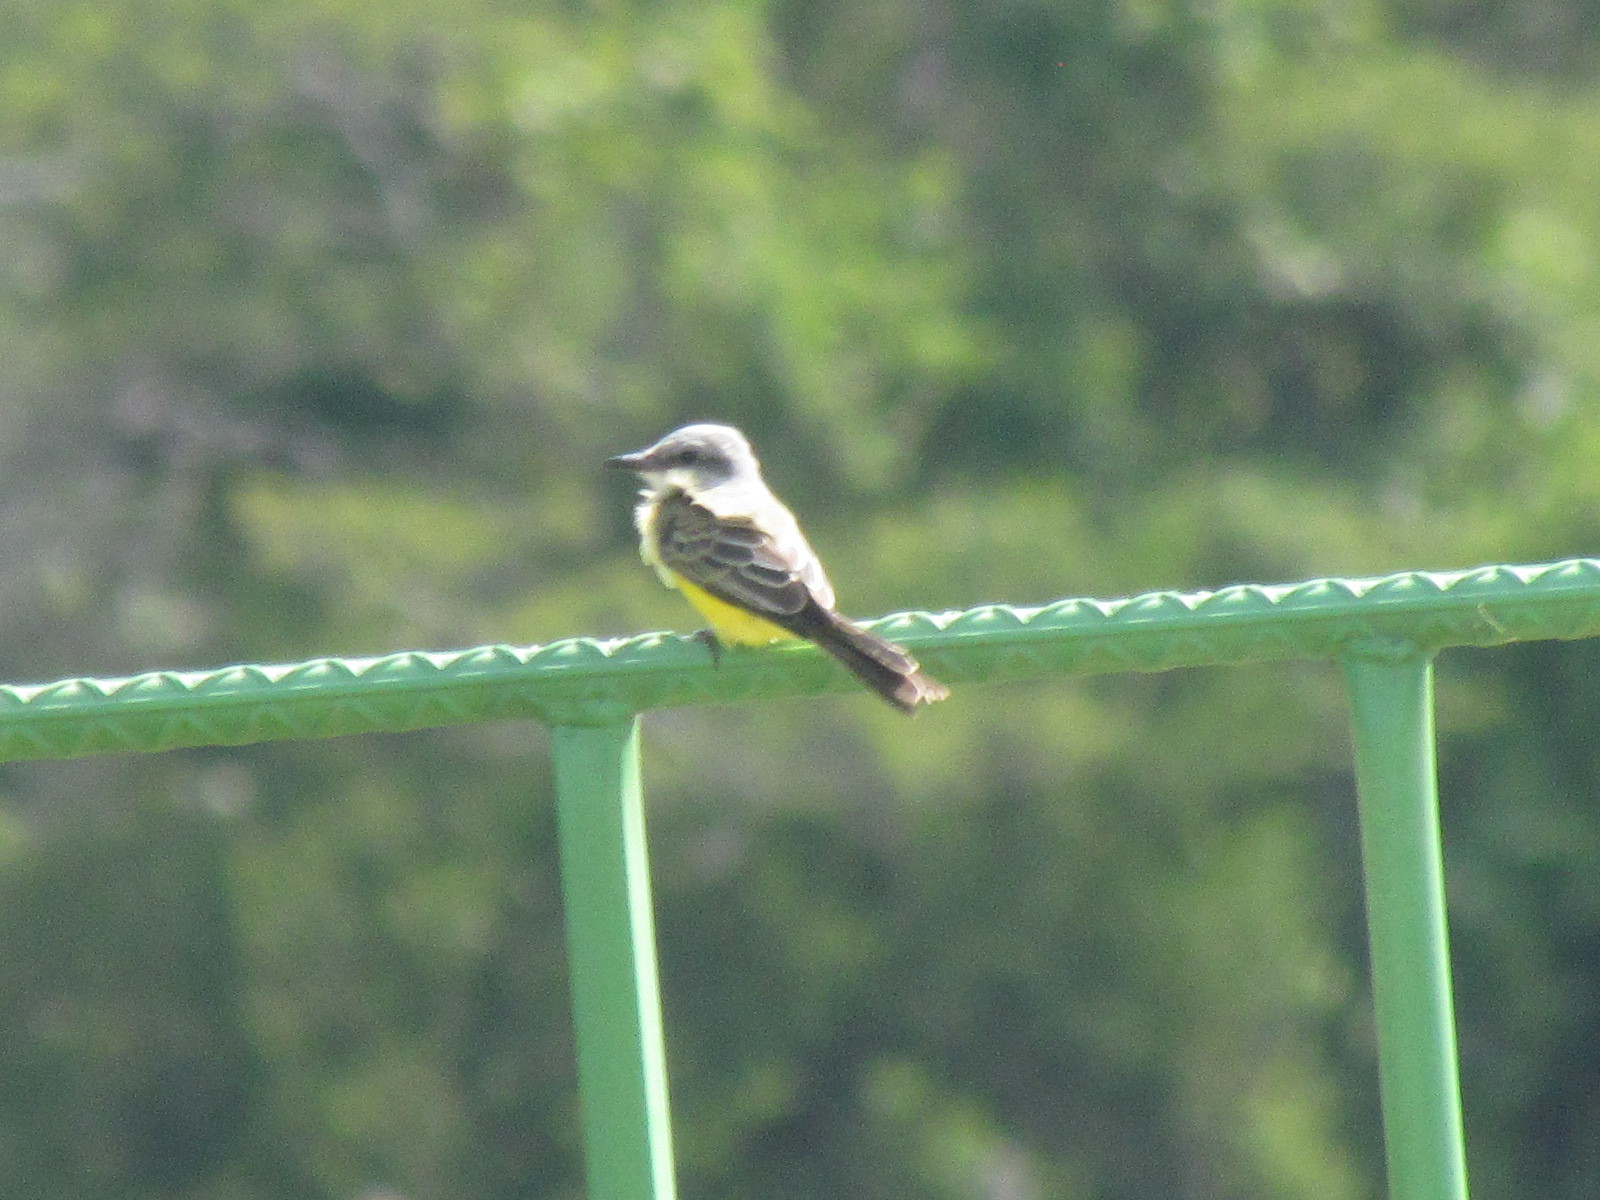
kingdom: Animalia
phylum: Chordata
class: Aves
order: Passeriformes
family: Tyrannidae
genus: Tyrannus
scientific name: Tyrannus melancholicus
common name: Tropical kingbird
